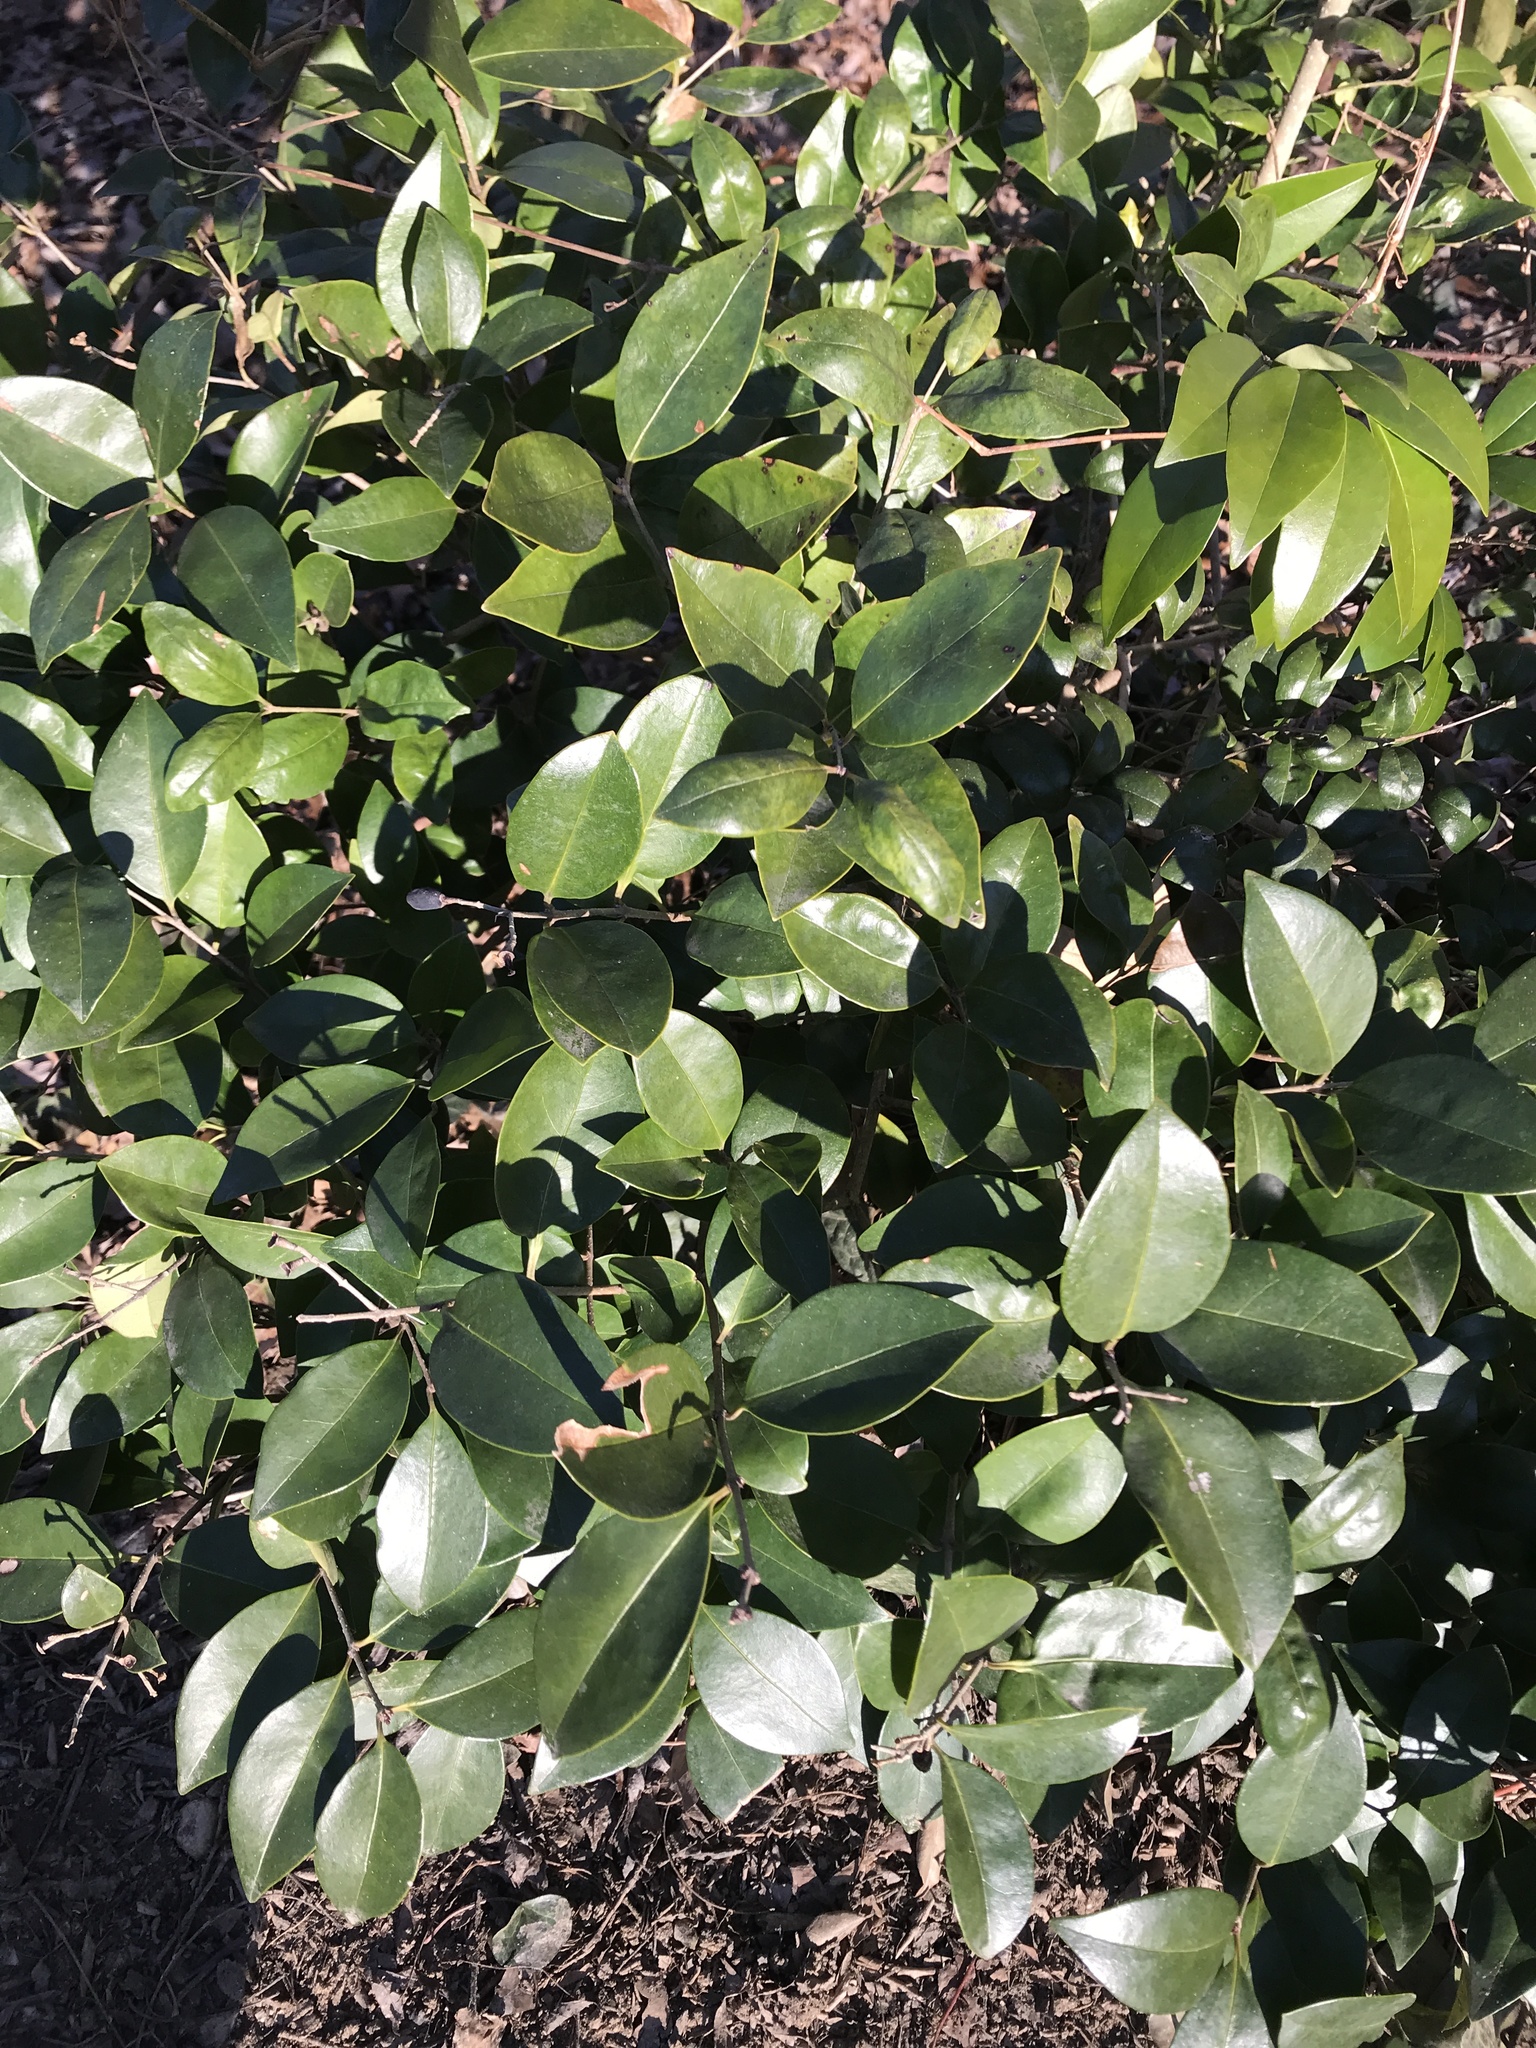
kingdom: Plantae
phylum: Tracheophyta
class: Magnoliopsida
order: Lamiales
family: Oleaceae
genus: Ligustrum
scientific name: Ligustrum japonicum
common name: Japanese privet
